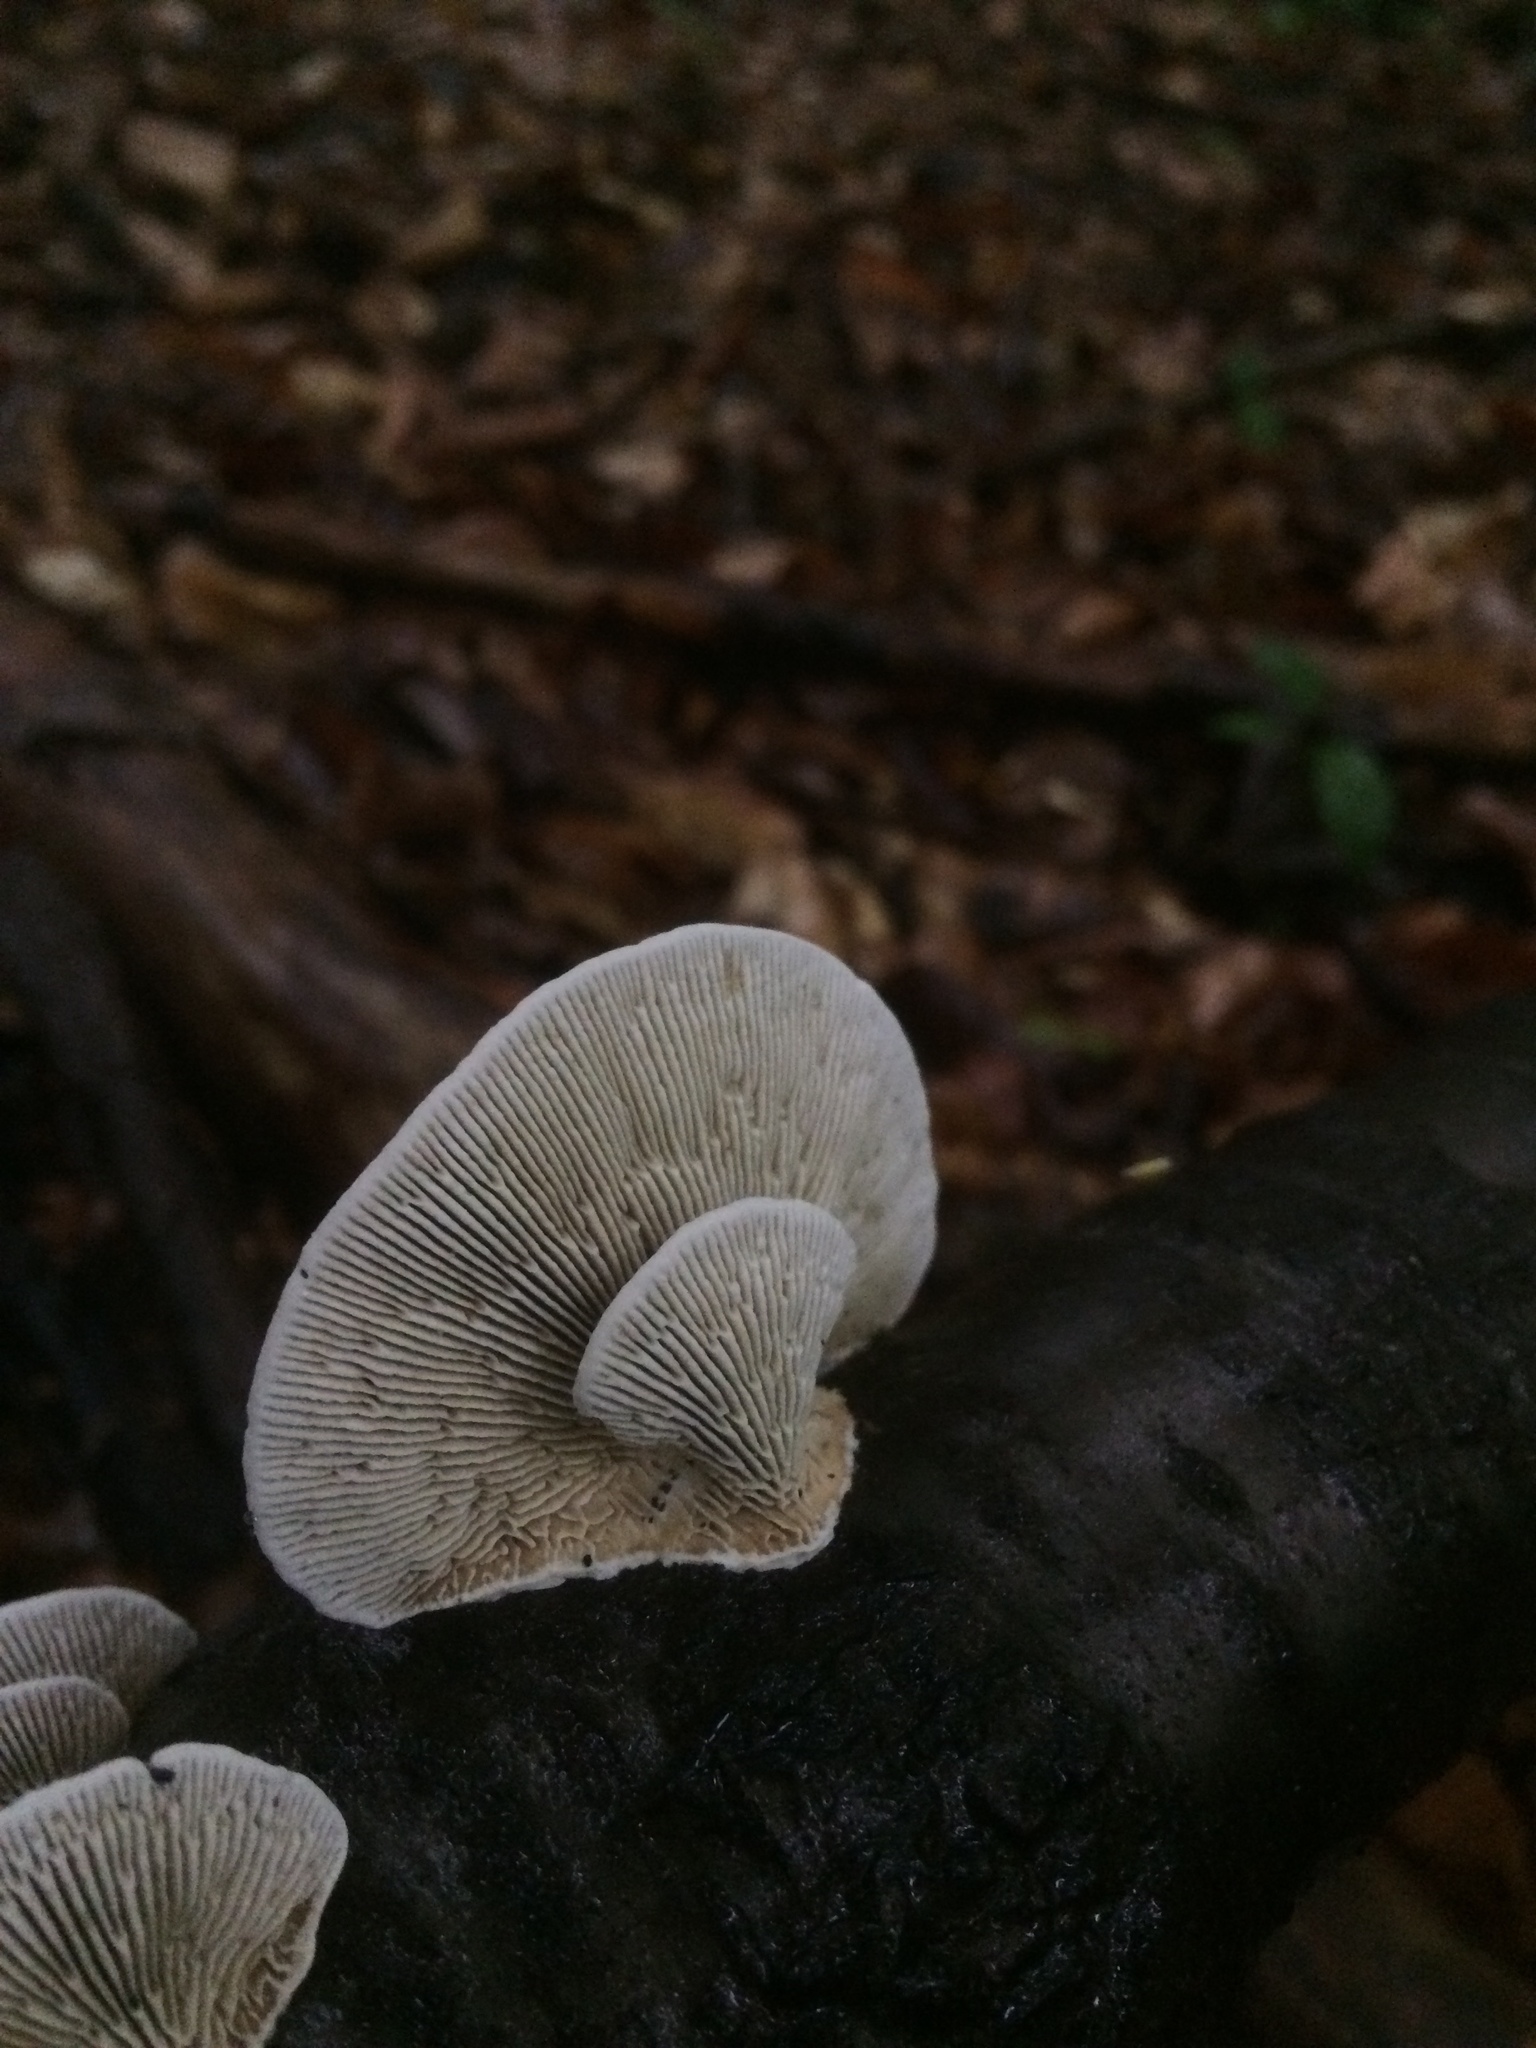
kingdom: Fungi
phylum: Basidiomycota
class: Agaricomycetes
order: Polyporales
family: Polyporaceae
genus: Daedaleopsis
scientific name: Daedaleopsis confragosa
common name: Blushing bracket
